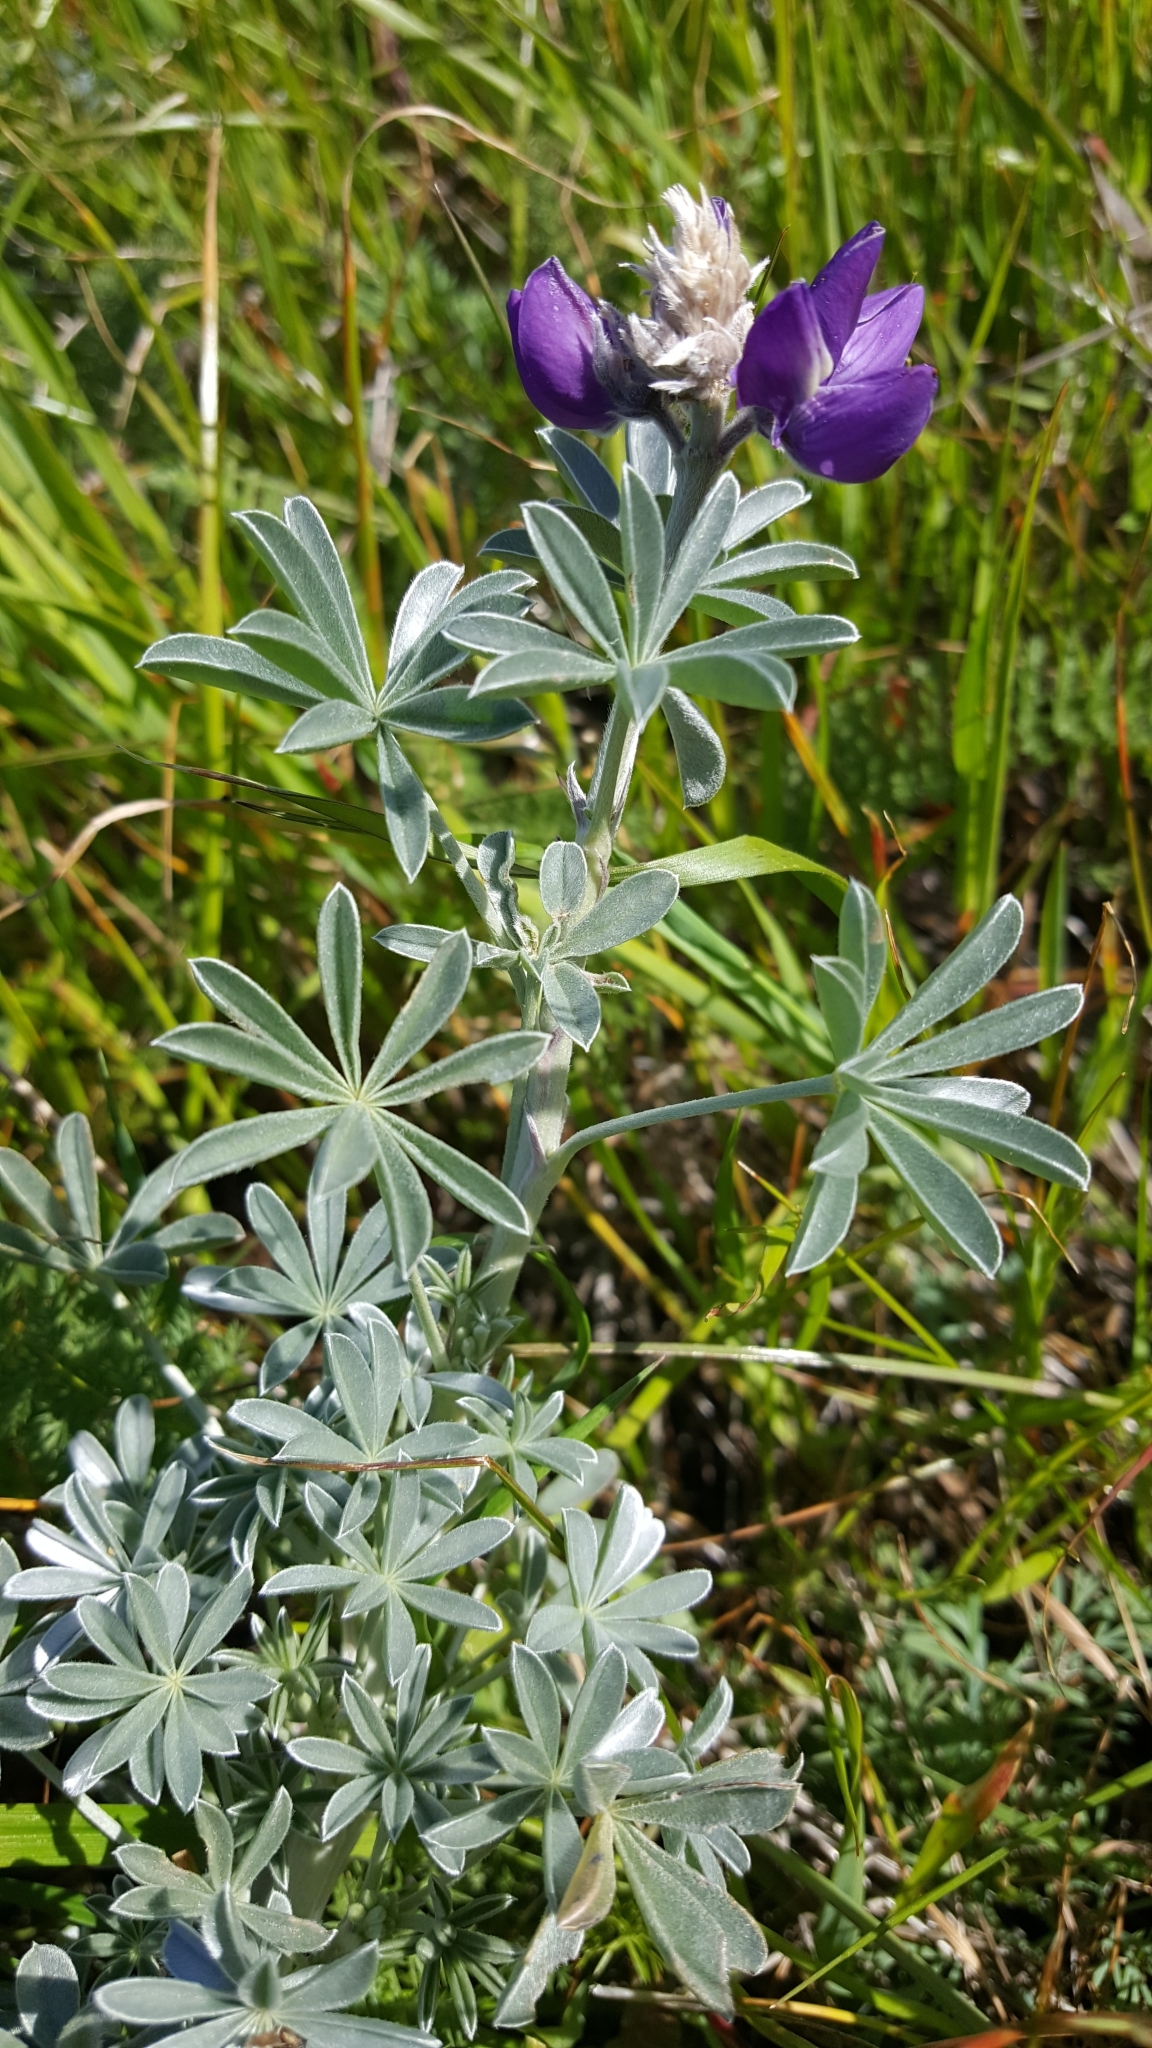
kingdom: Plantae
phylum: Tracheophyta
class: Magnoliopsida
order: Fabales
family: Fabaceae
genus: Lupinus
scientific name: Lupinus albifrons
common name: Foothill lupine
